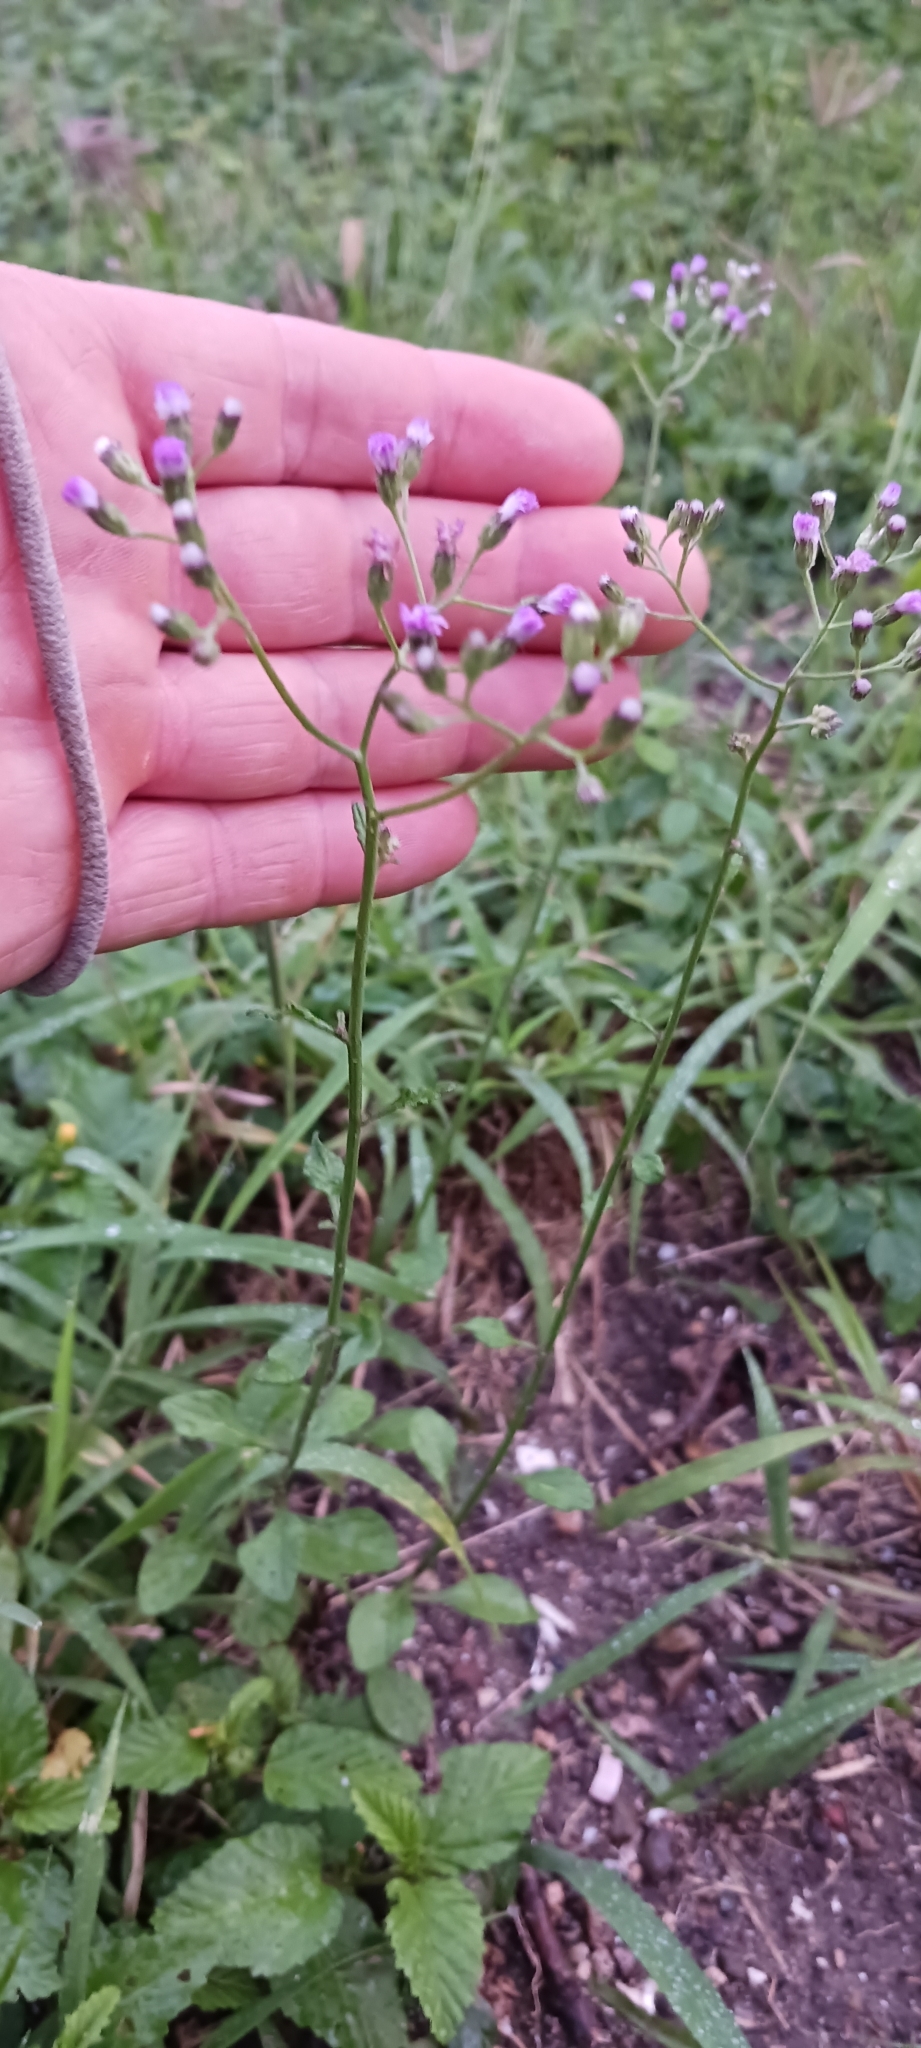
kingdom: Plantae
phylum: Tracheophyta
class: Magnoliopsida
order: Asterales
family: Asteraceae
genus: Cyanthillium
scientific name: Cyanthillium cinereum
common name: Little ironweed
